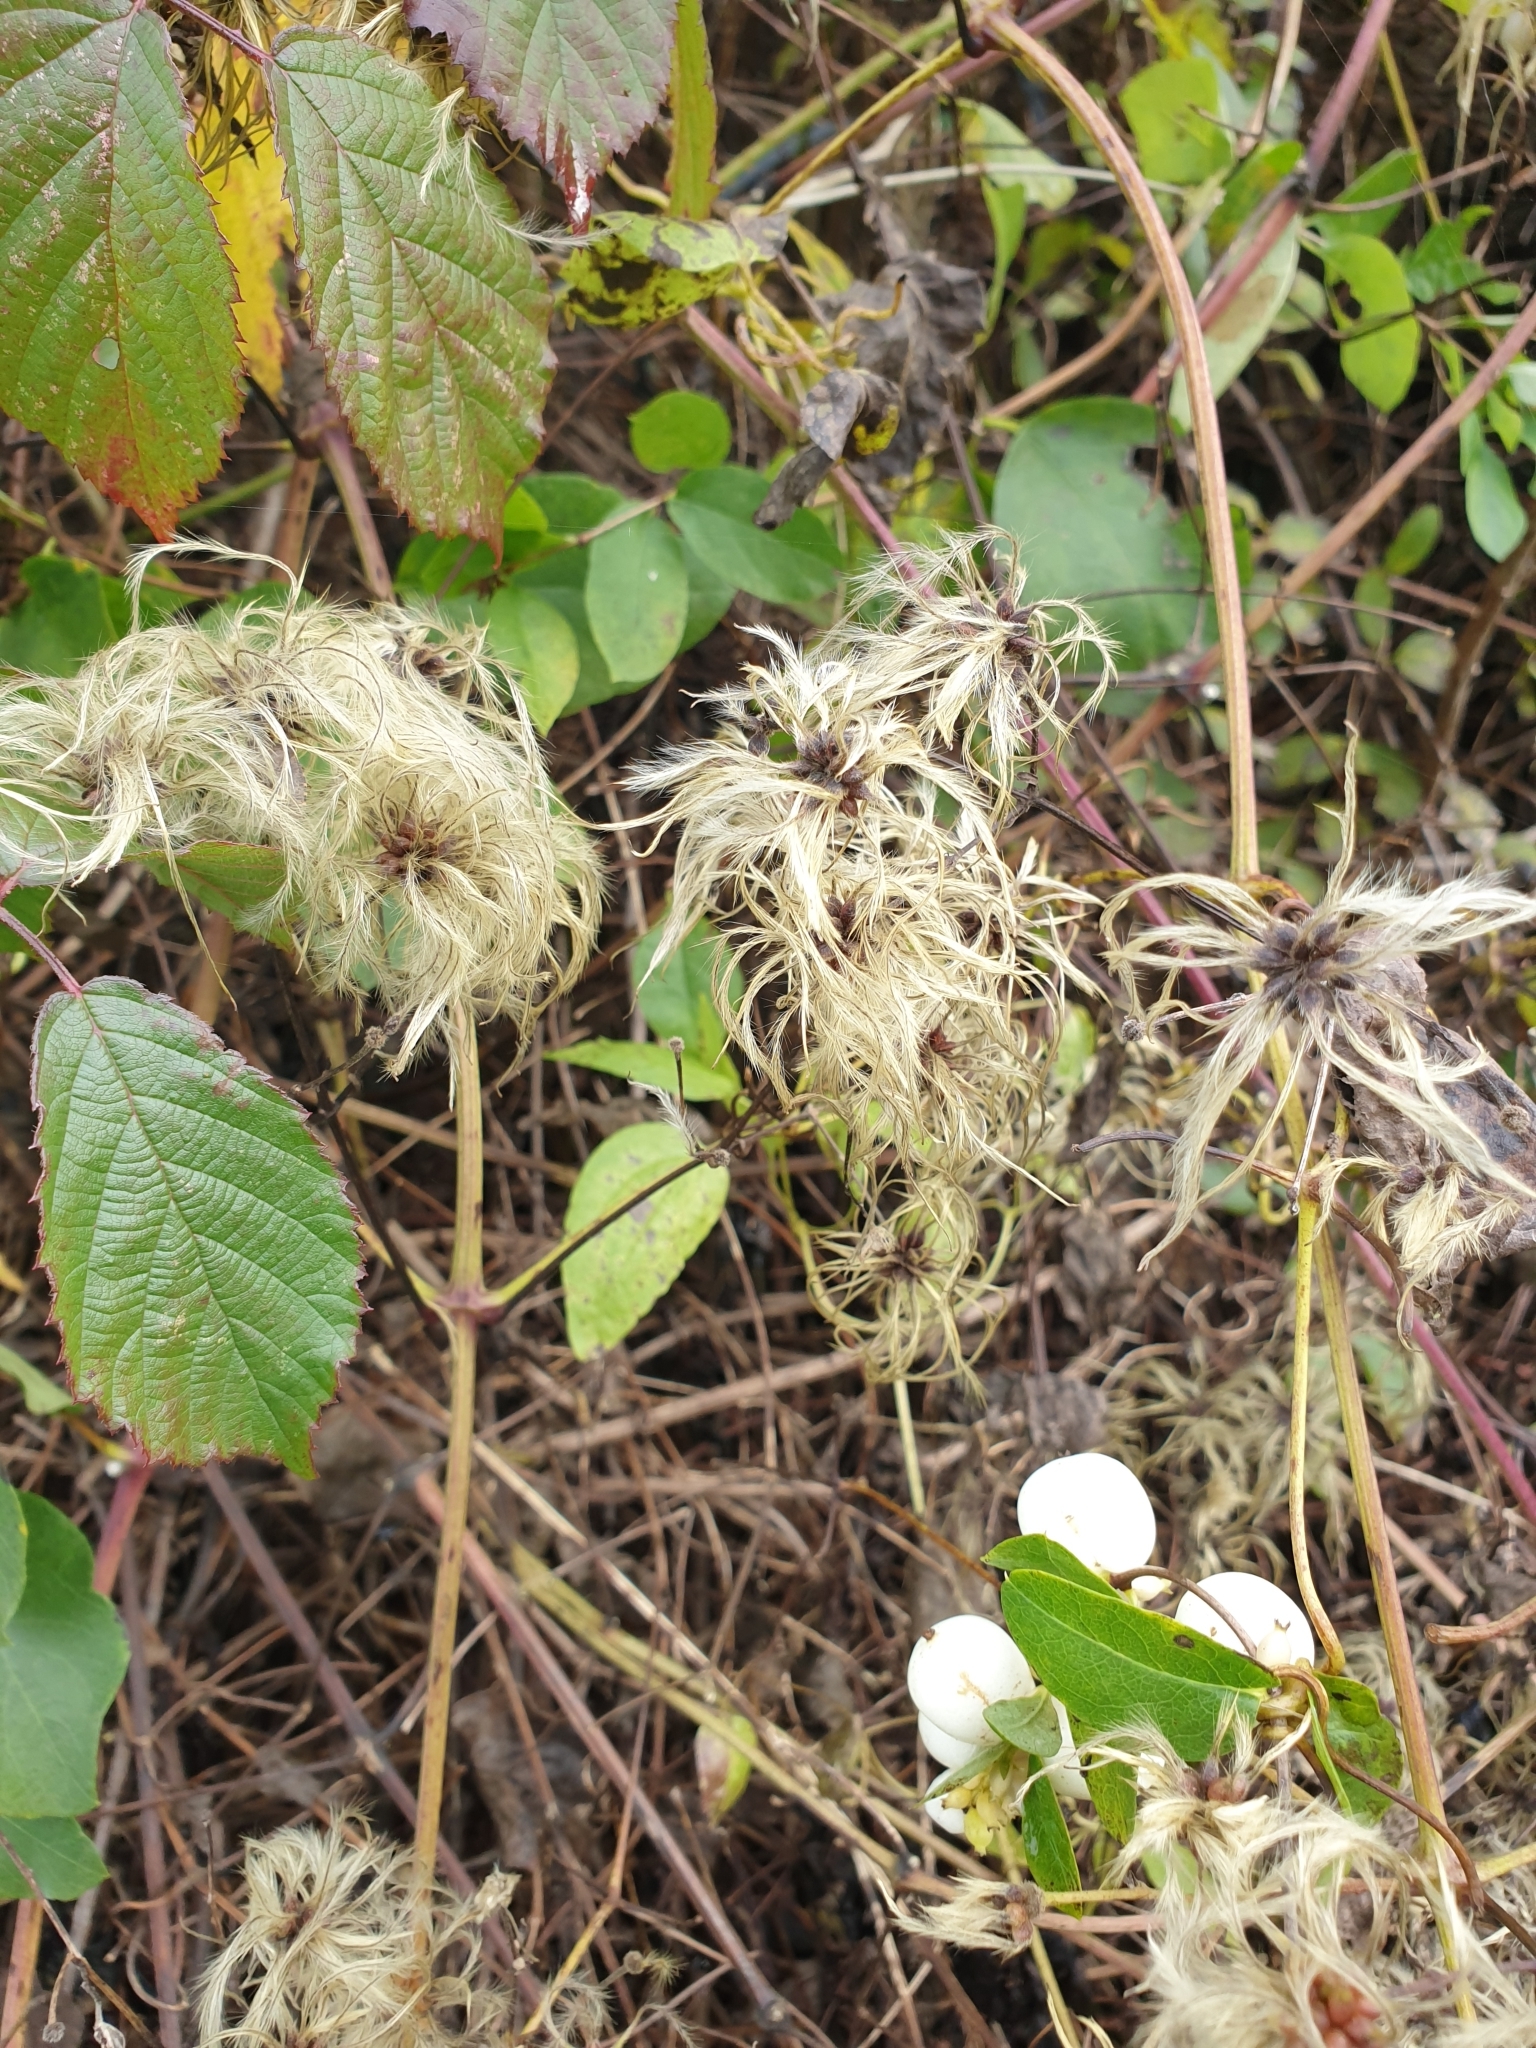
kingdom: Plantae
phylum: Tracheophyta
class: Magnoliopsida
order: Ranunculales
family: Ranunculaceae
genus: Clematis
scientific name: Clematis vitalba
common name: Evergreen clematis
